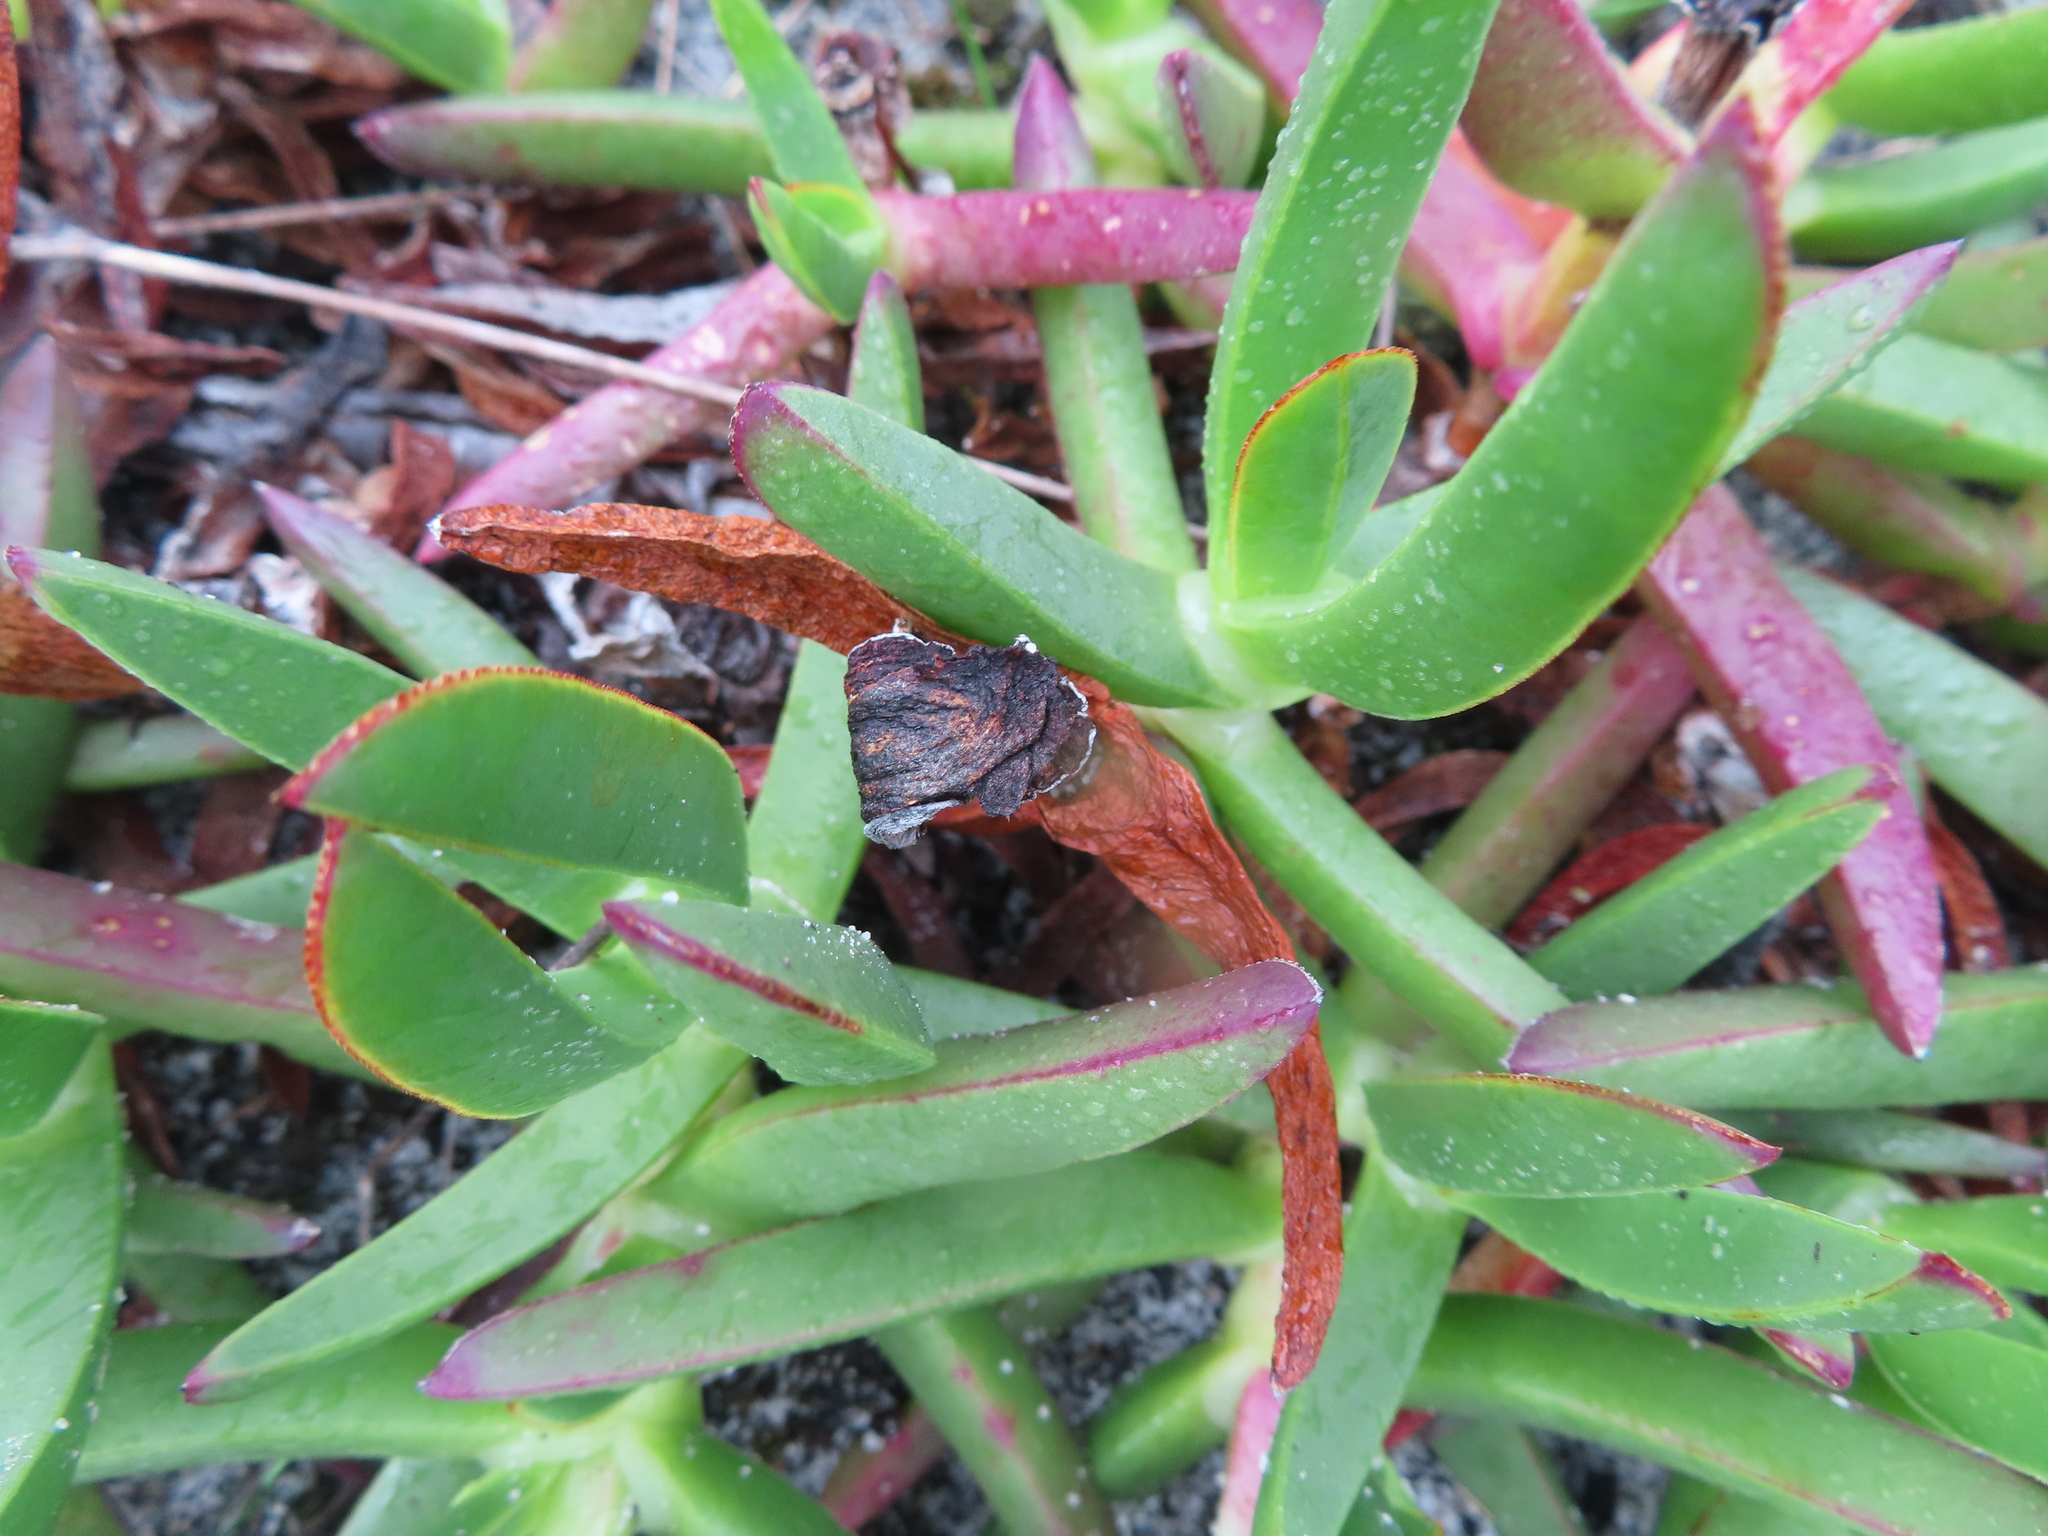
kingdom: Plantae
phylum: Tracheophyta
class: Magnoliopsida
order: Caryophyllales
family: Aizoaceae
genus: Carpobrotus
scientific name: Carpobrotus edulis
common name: Hottentot-fig
